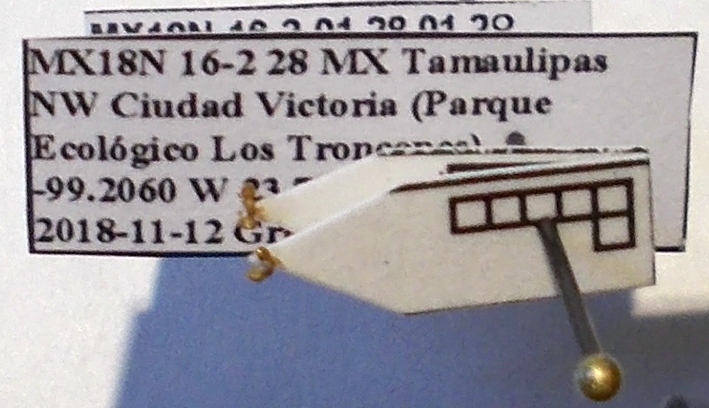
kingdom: Animalia
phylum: Arthropoda
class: Insecta
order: Hymenoptera
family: Formicidae
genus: Cardiocondyla
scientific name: Cardiocondyla wroughtonii
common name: Yellow sneaking ant
